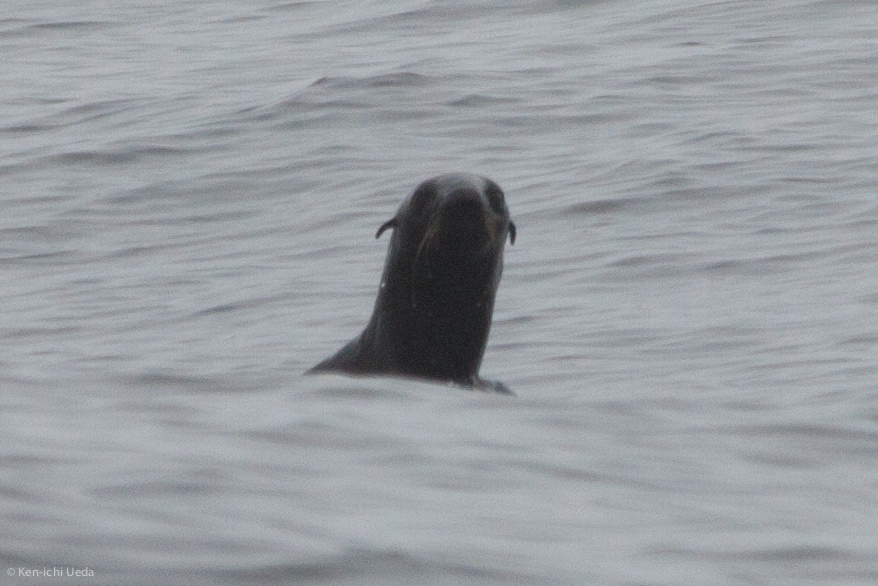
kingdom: Animalia
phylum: Chordata
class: Mammalia
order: Carnivora
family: Otariidae
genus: Callorhinus
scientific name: Callorhinus ursinus
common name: Northern fur seal
